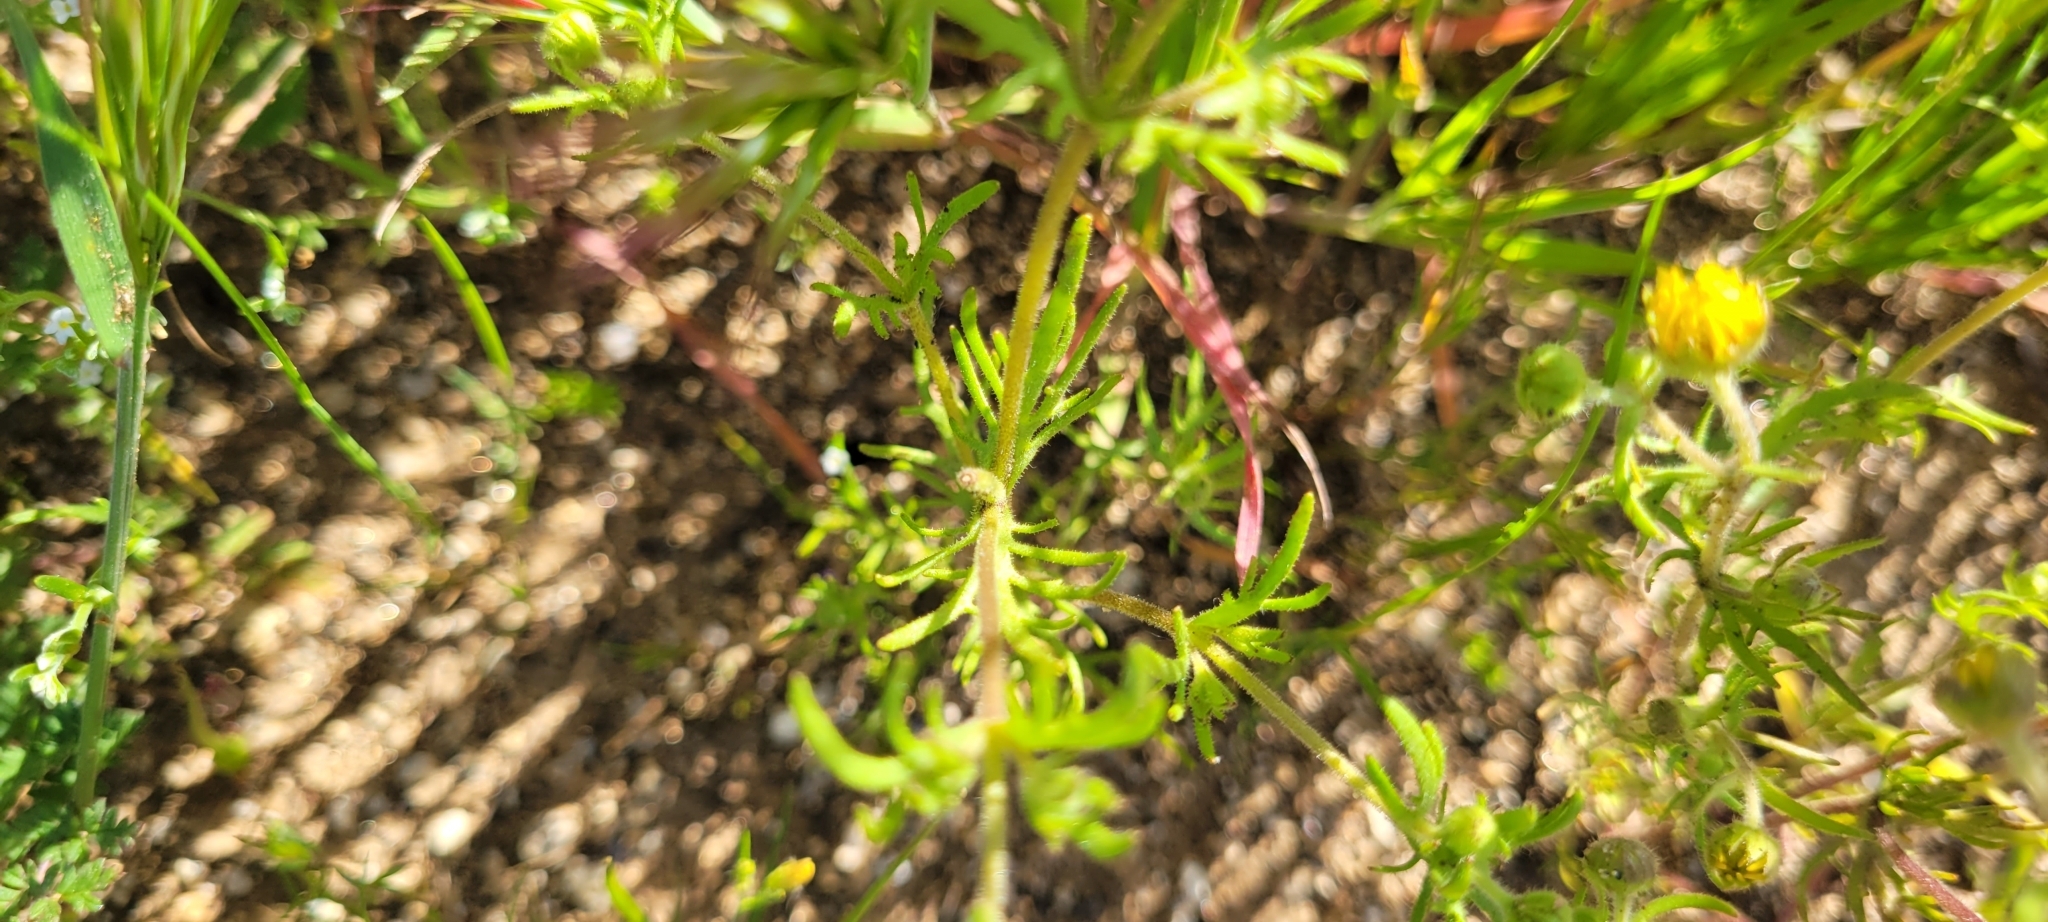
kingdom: Plantae
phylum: Tracheophyta
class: Magnoliopsida
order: Asterales
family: Asteraceae
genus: Lasthenia
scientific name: Lasthenia coronaria
